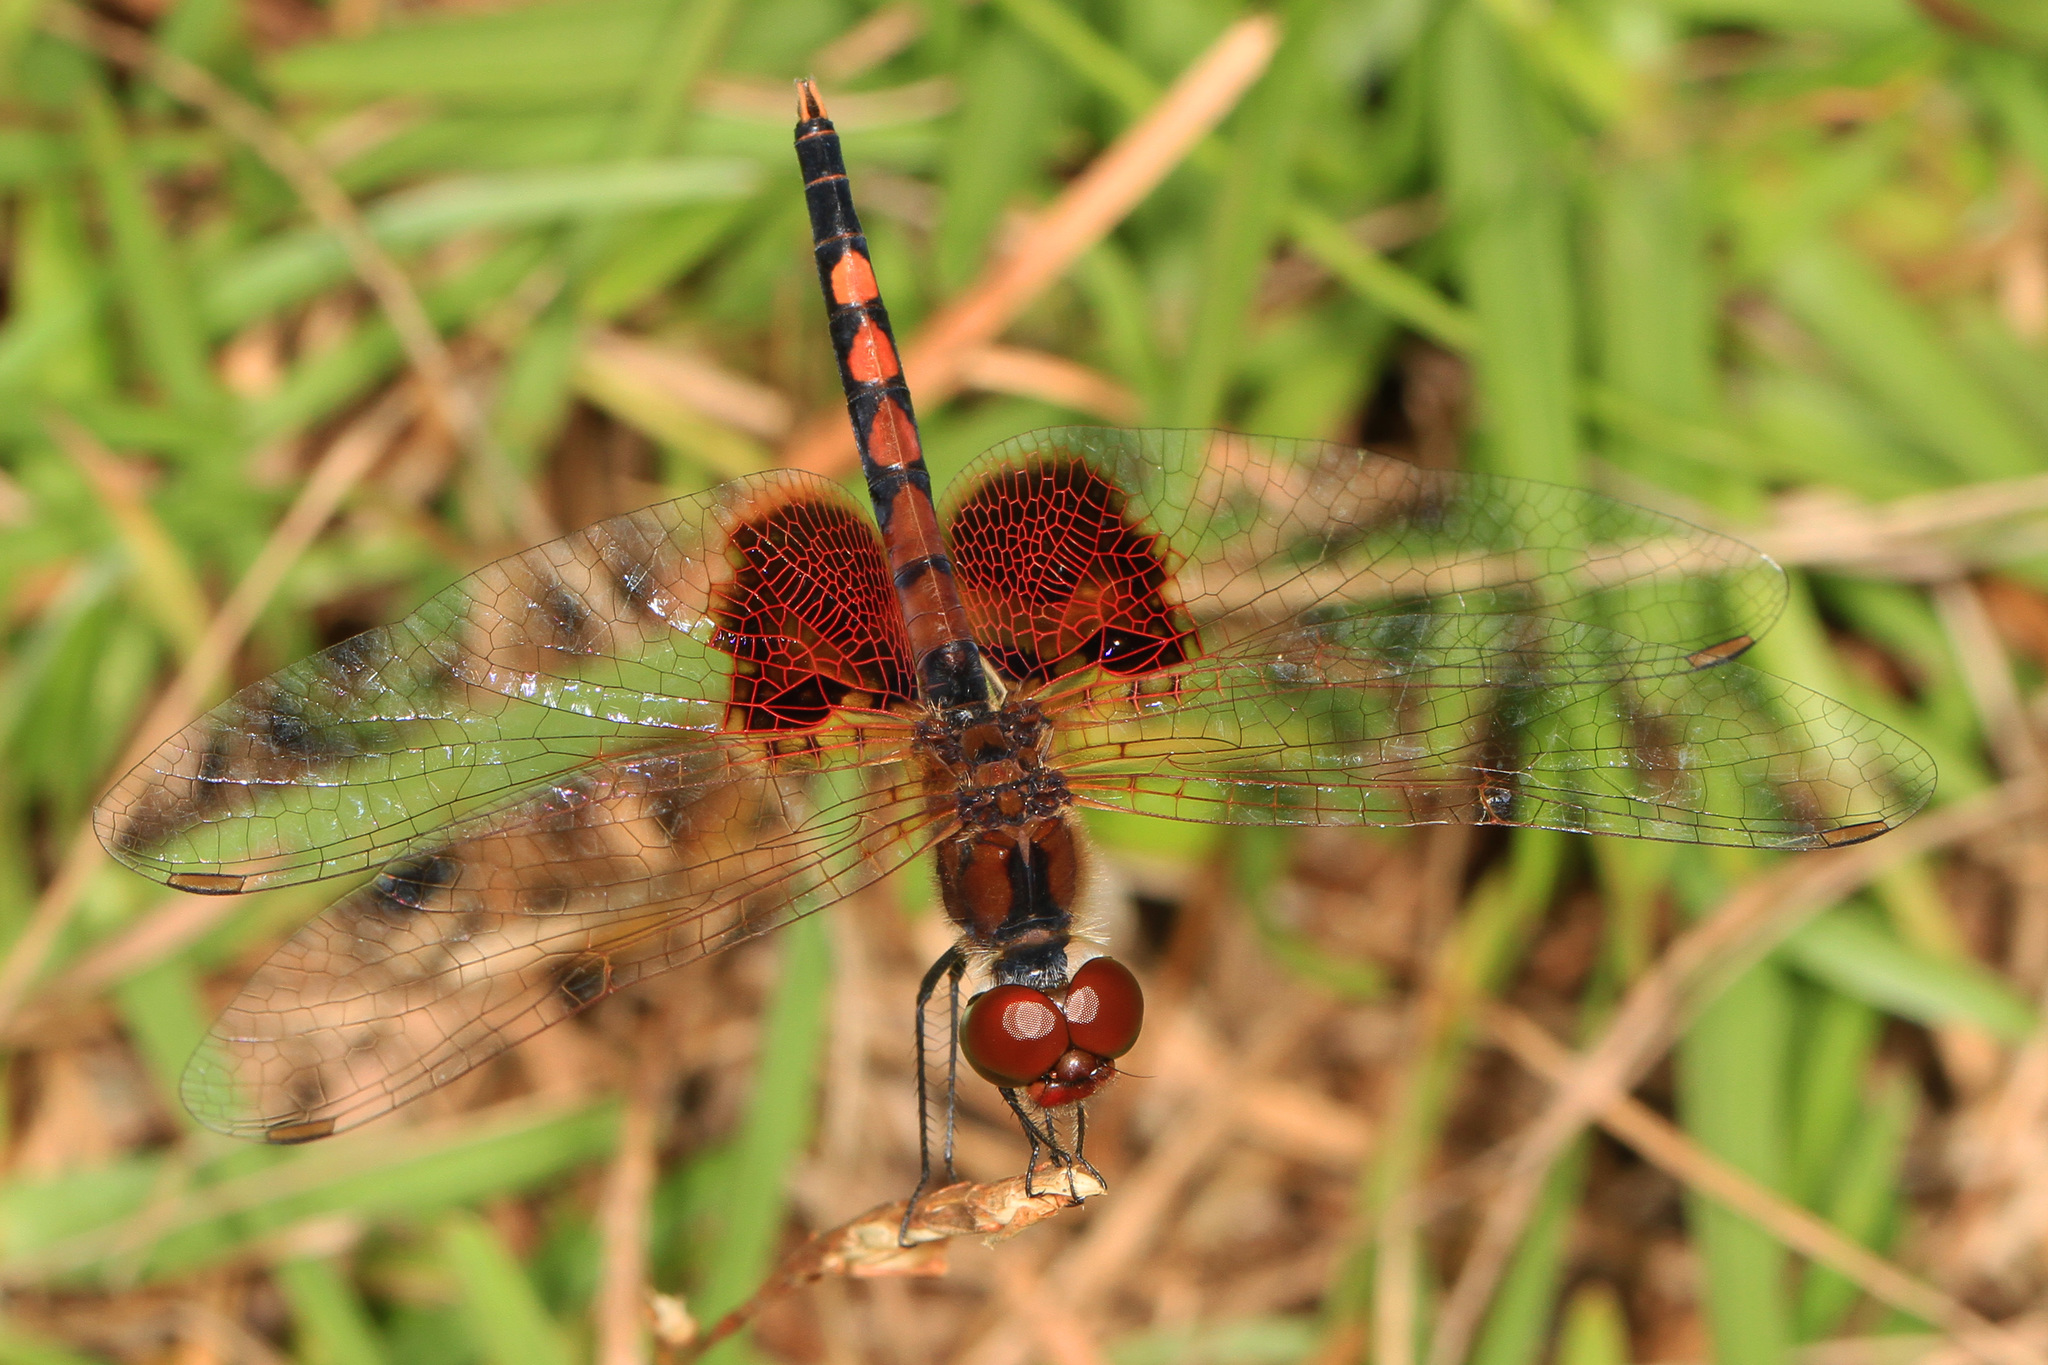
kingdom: Animalia
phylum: Arthropoda
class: Insecta
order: Odonata
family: Libellulidae
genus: Celithemis
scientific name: Celithemis amanda
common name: Amanda's pennant
